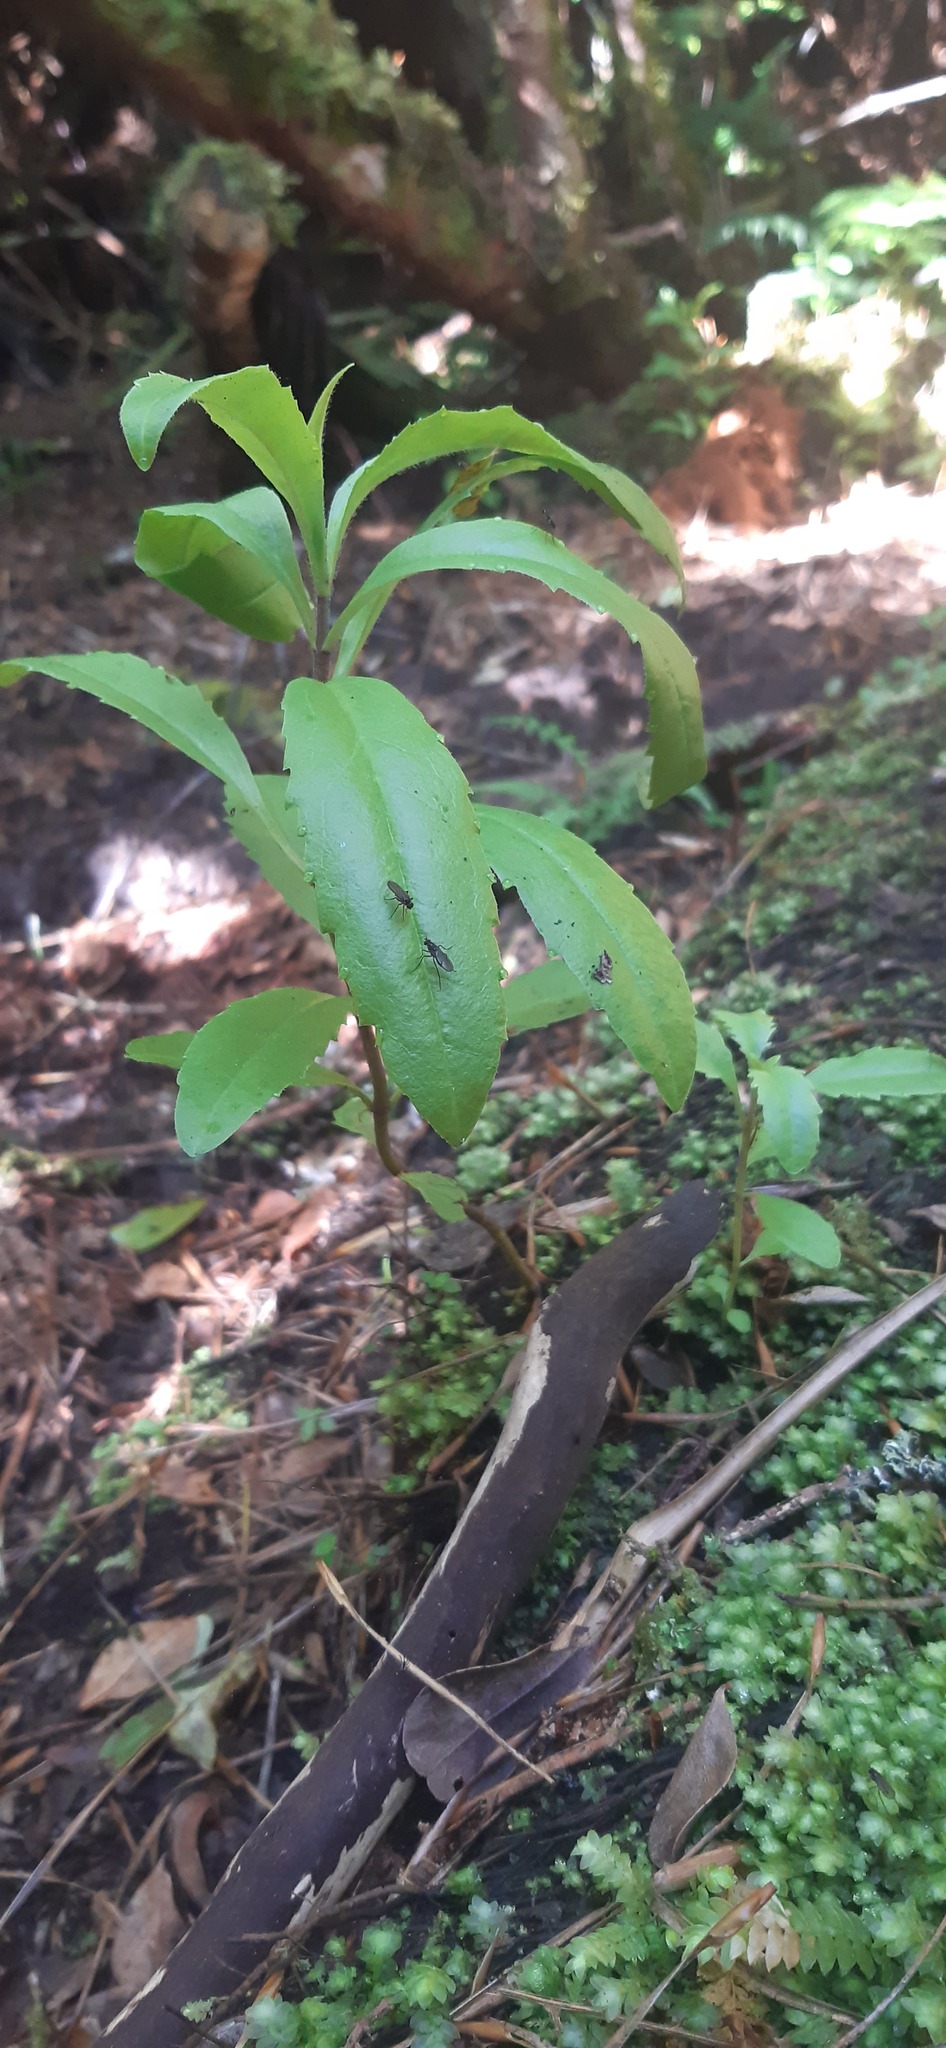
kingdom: Plantae
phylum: Tracheophyta
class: Magnoliopsida
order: Lamiales
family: Plantaginaceae
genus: Veronica
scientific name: Veronica barkeri
